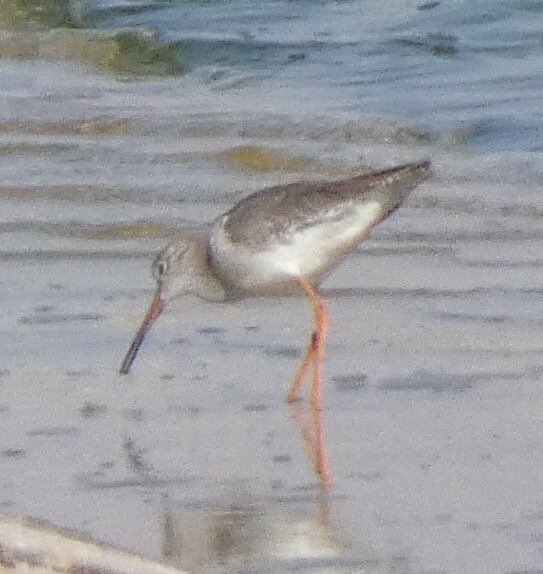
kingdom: Animalia
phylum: Chordata
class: Aves
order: Charadriiformes
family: Scolopacidae
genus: Tringa
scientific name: Tringa totanus
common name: Common redshank
